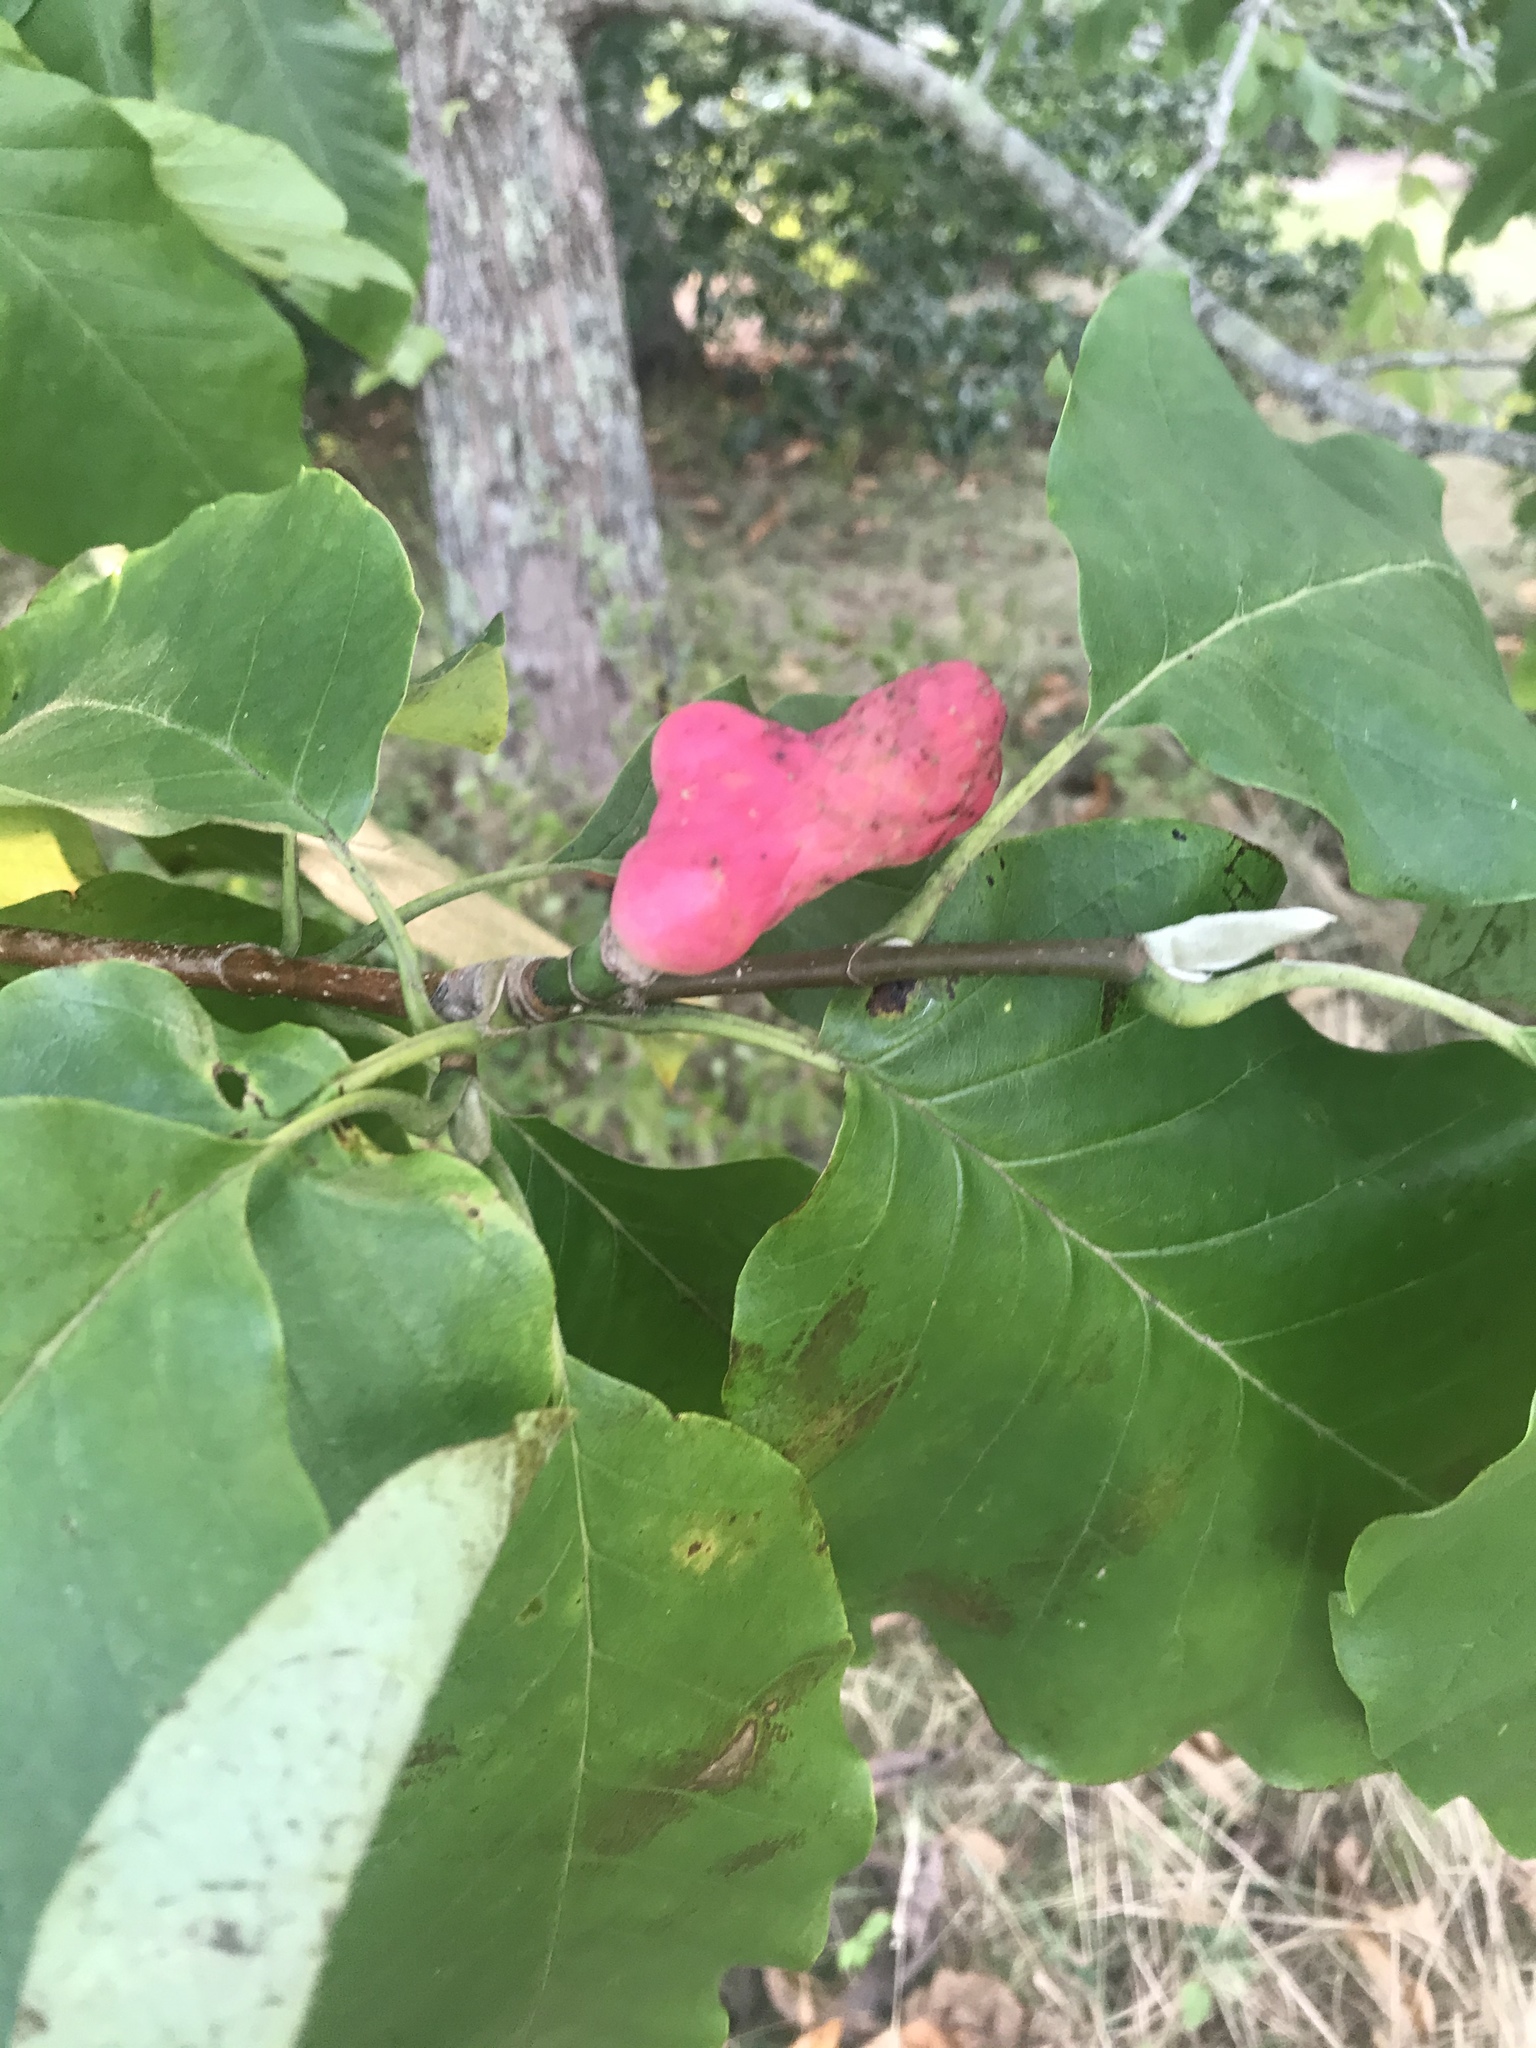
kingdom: Plantae
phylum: Tracheophyta
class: Magnoliopsida
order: Magnoliales
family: Magnoliaceae
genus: Magnolia
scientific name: Magnolia acuminata
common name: Cucumber magnolia
